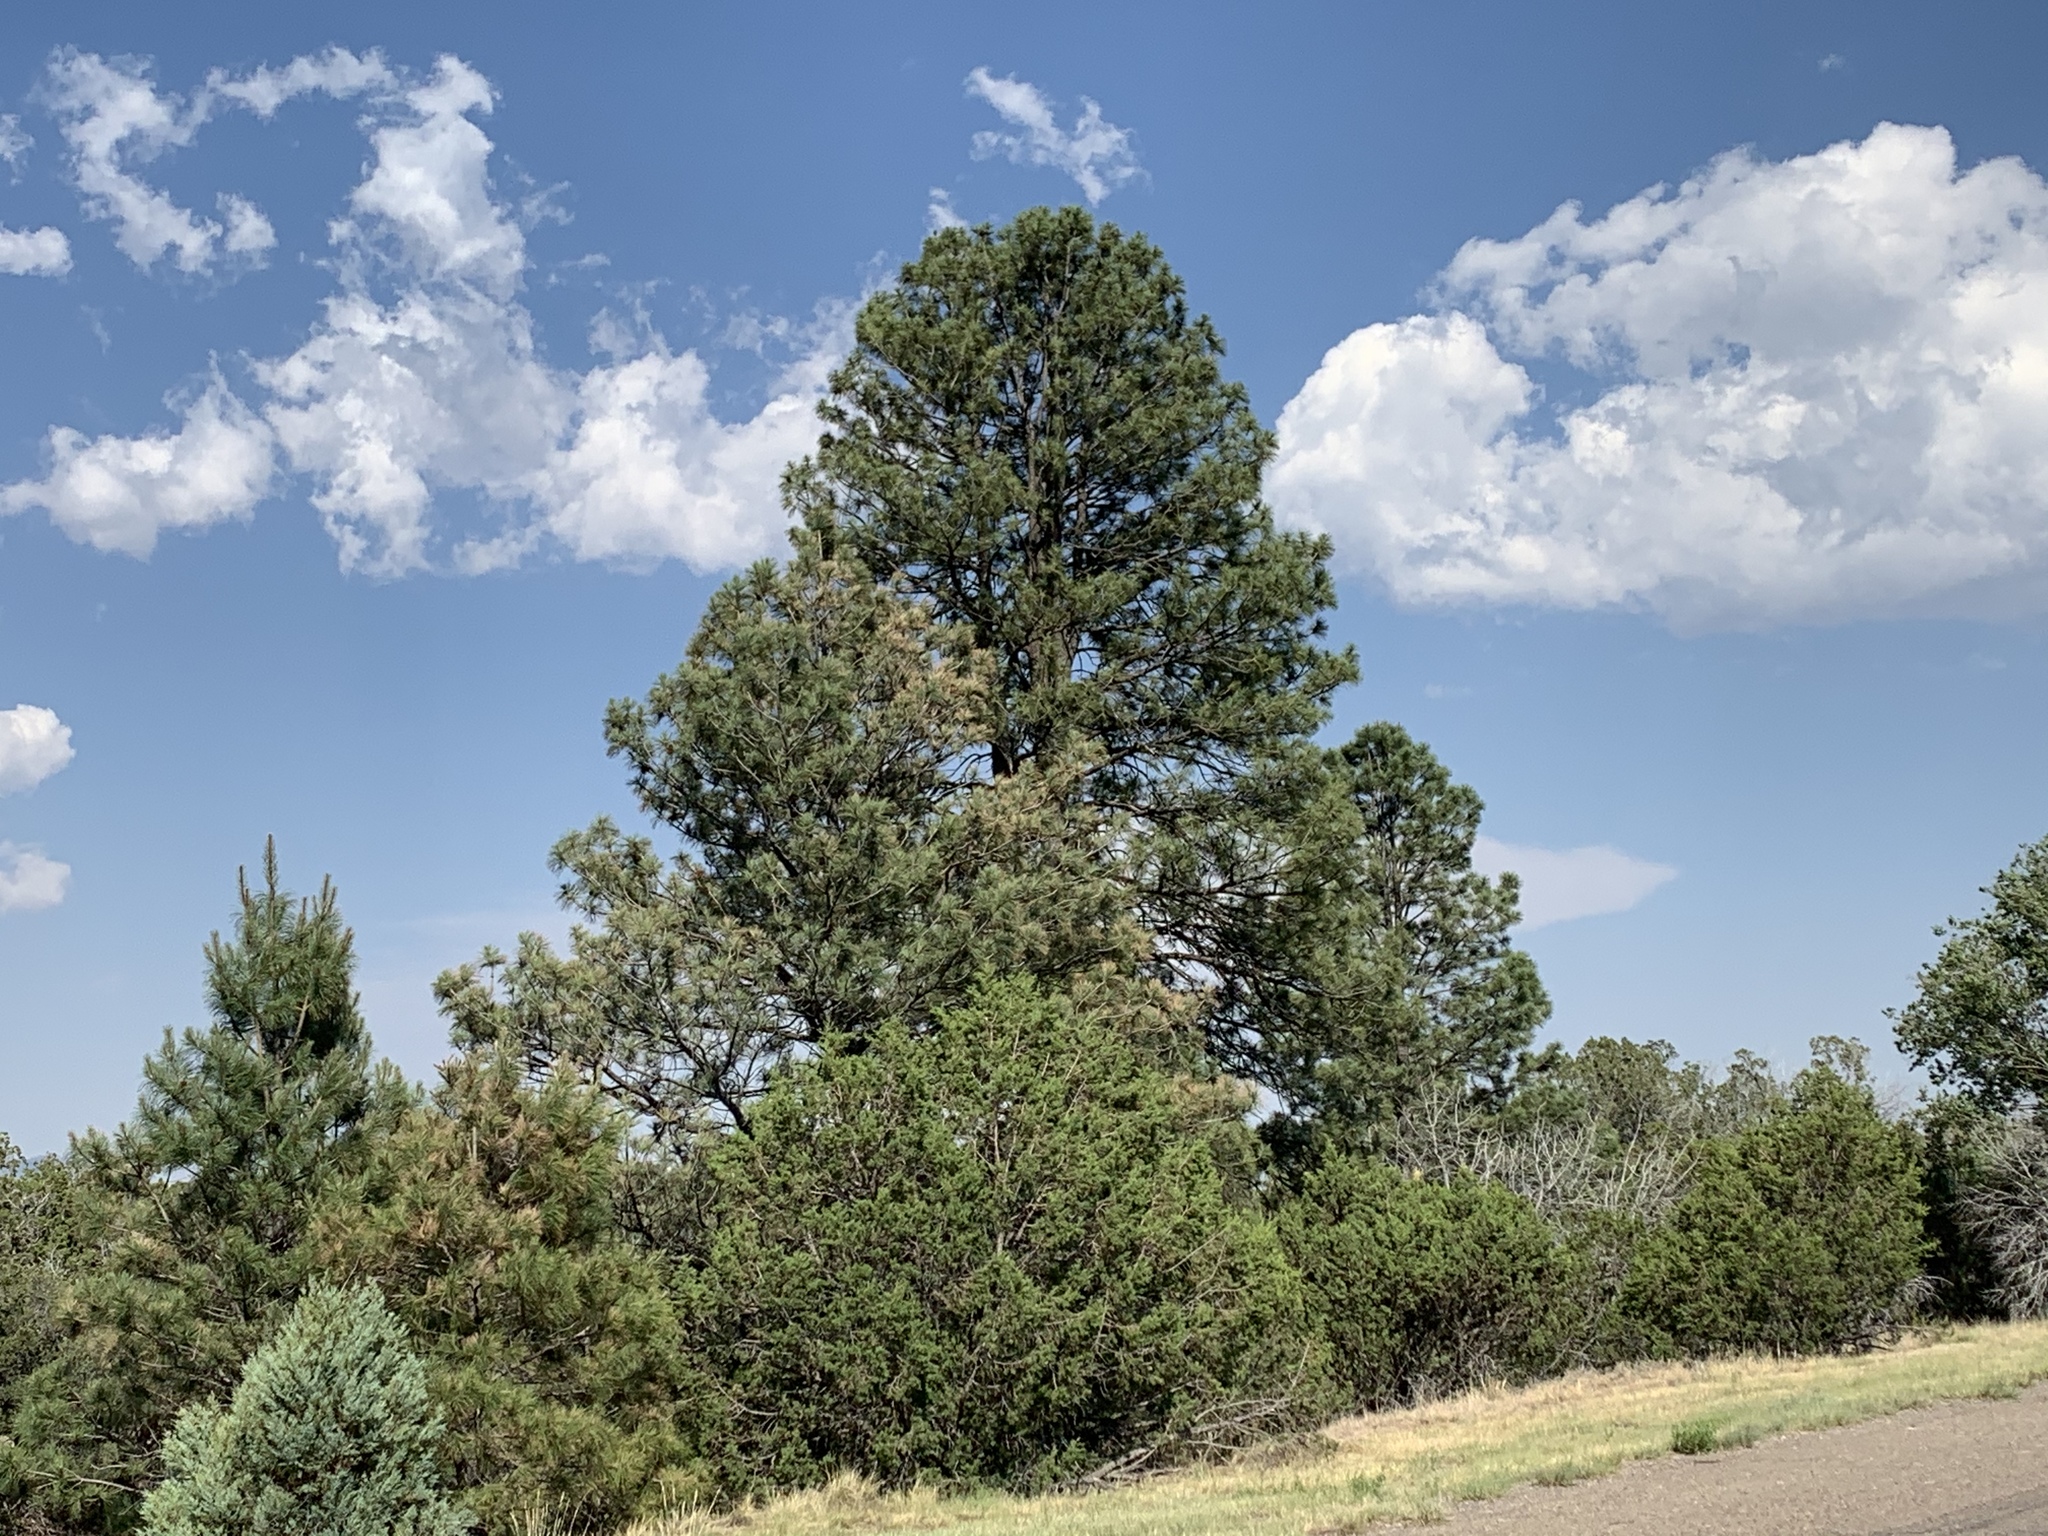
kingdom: Plantae
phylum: Tracheophyta
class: Pinopsida
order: Pinales
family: Pinaceae
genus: Pinus
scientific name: Pinus ponderosa
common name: Western yellow-pine
